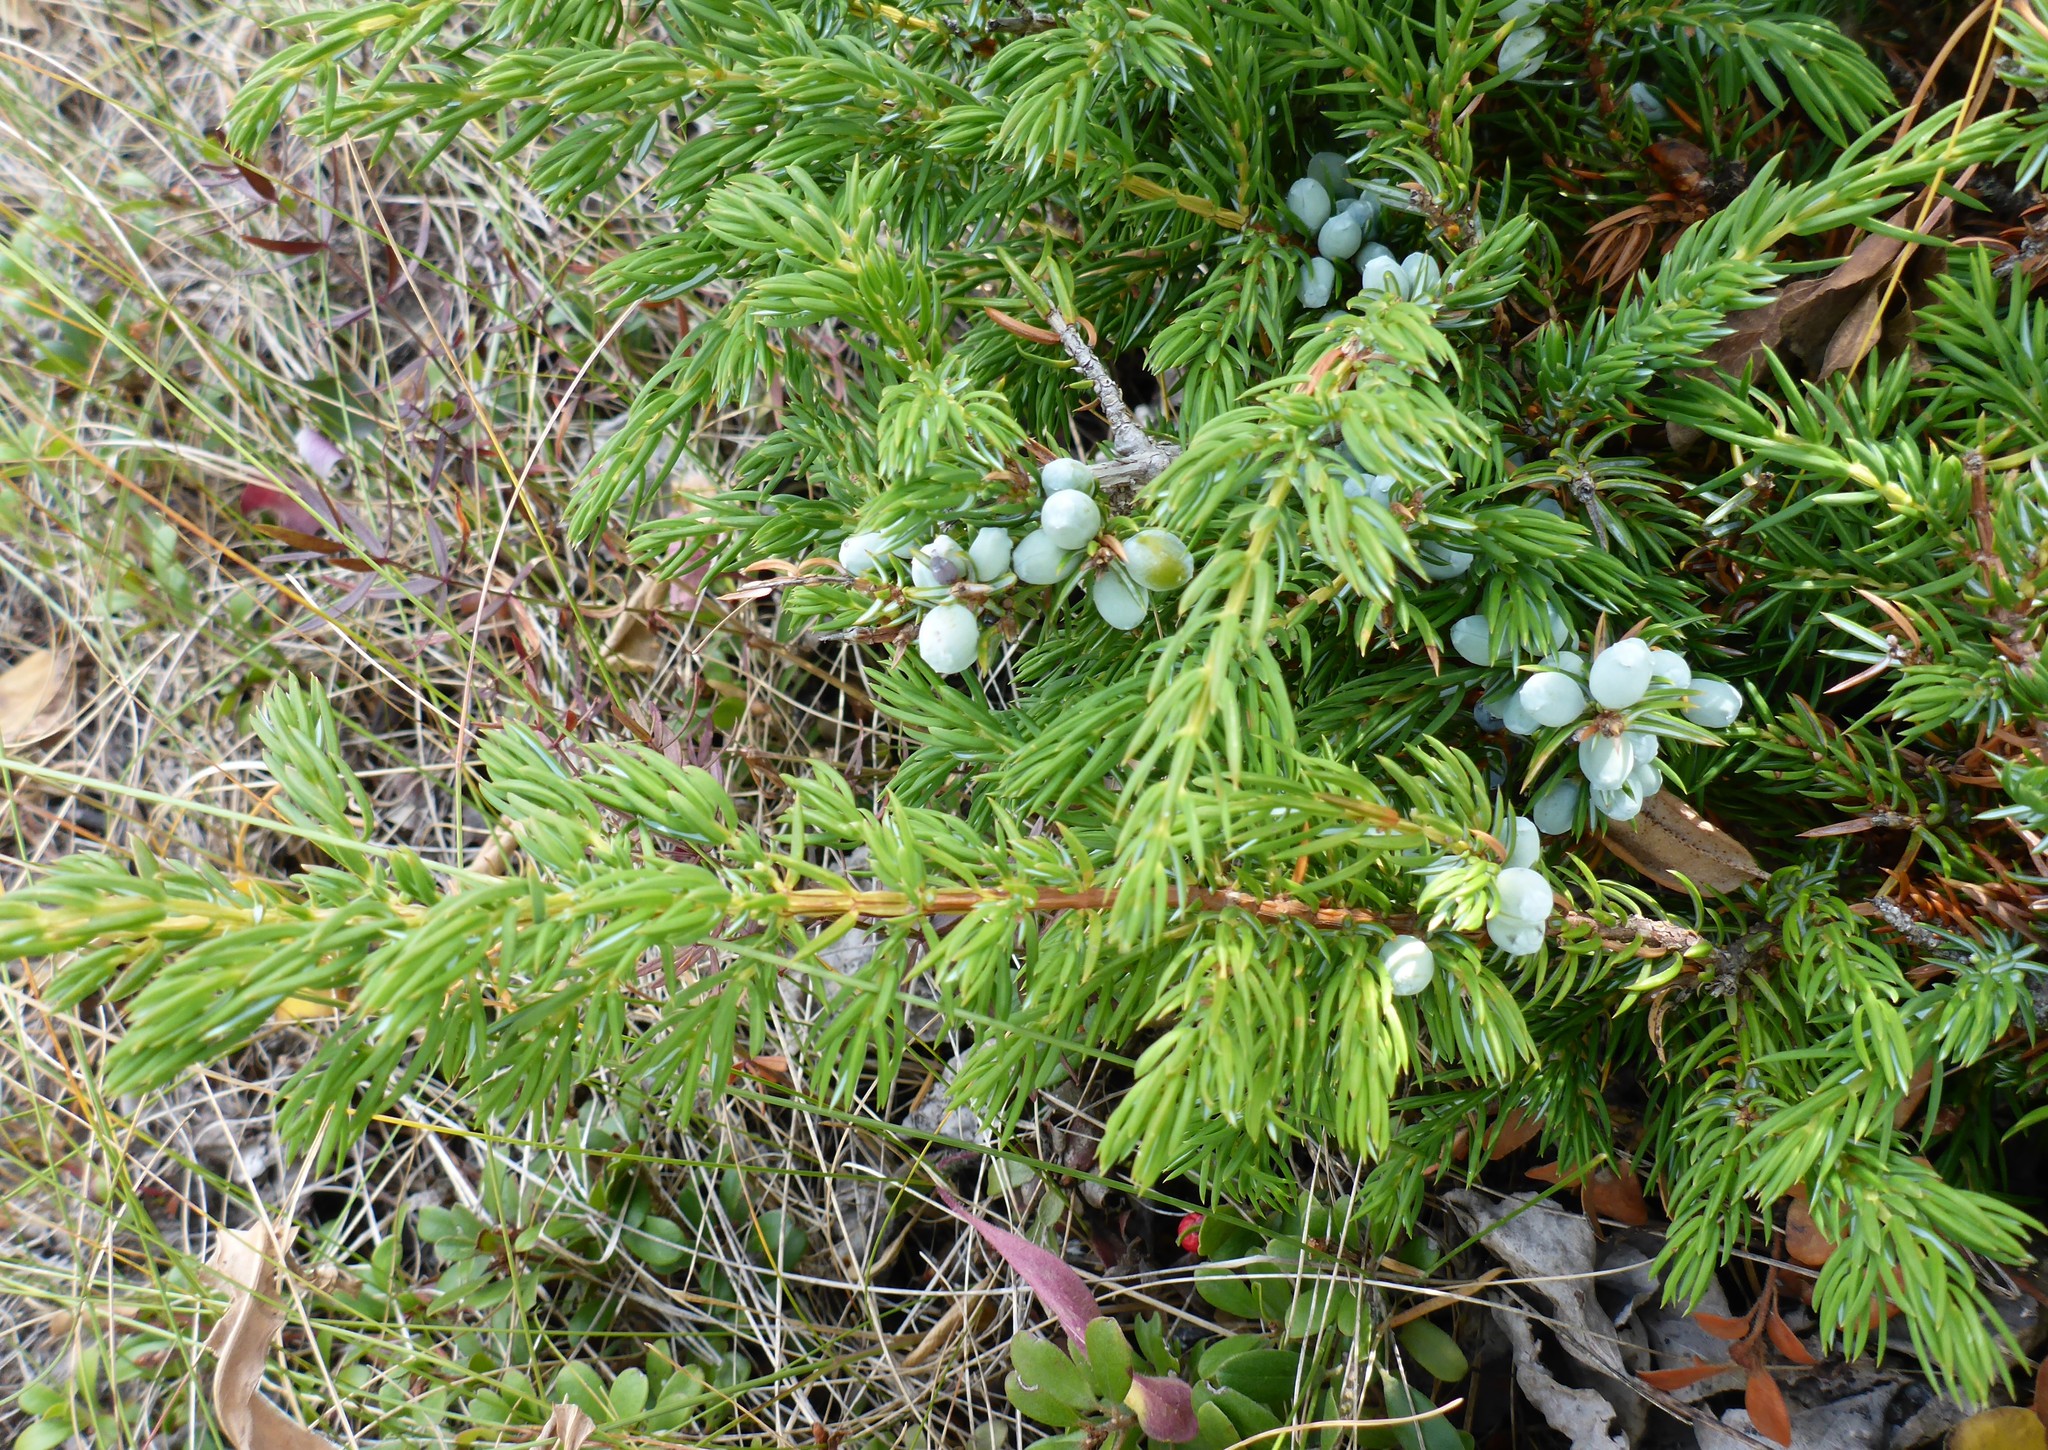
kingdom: Plantae
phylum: Tracheophyta
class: Pinopsida
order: Pinales
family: Cupressaceae
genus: Juniperus
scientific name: Juniperus communis
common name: Common juniper
